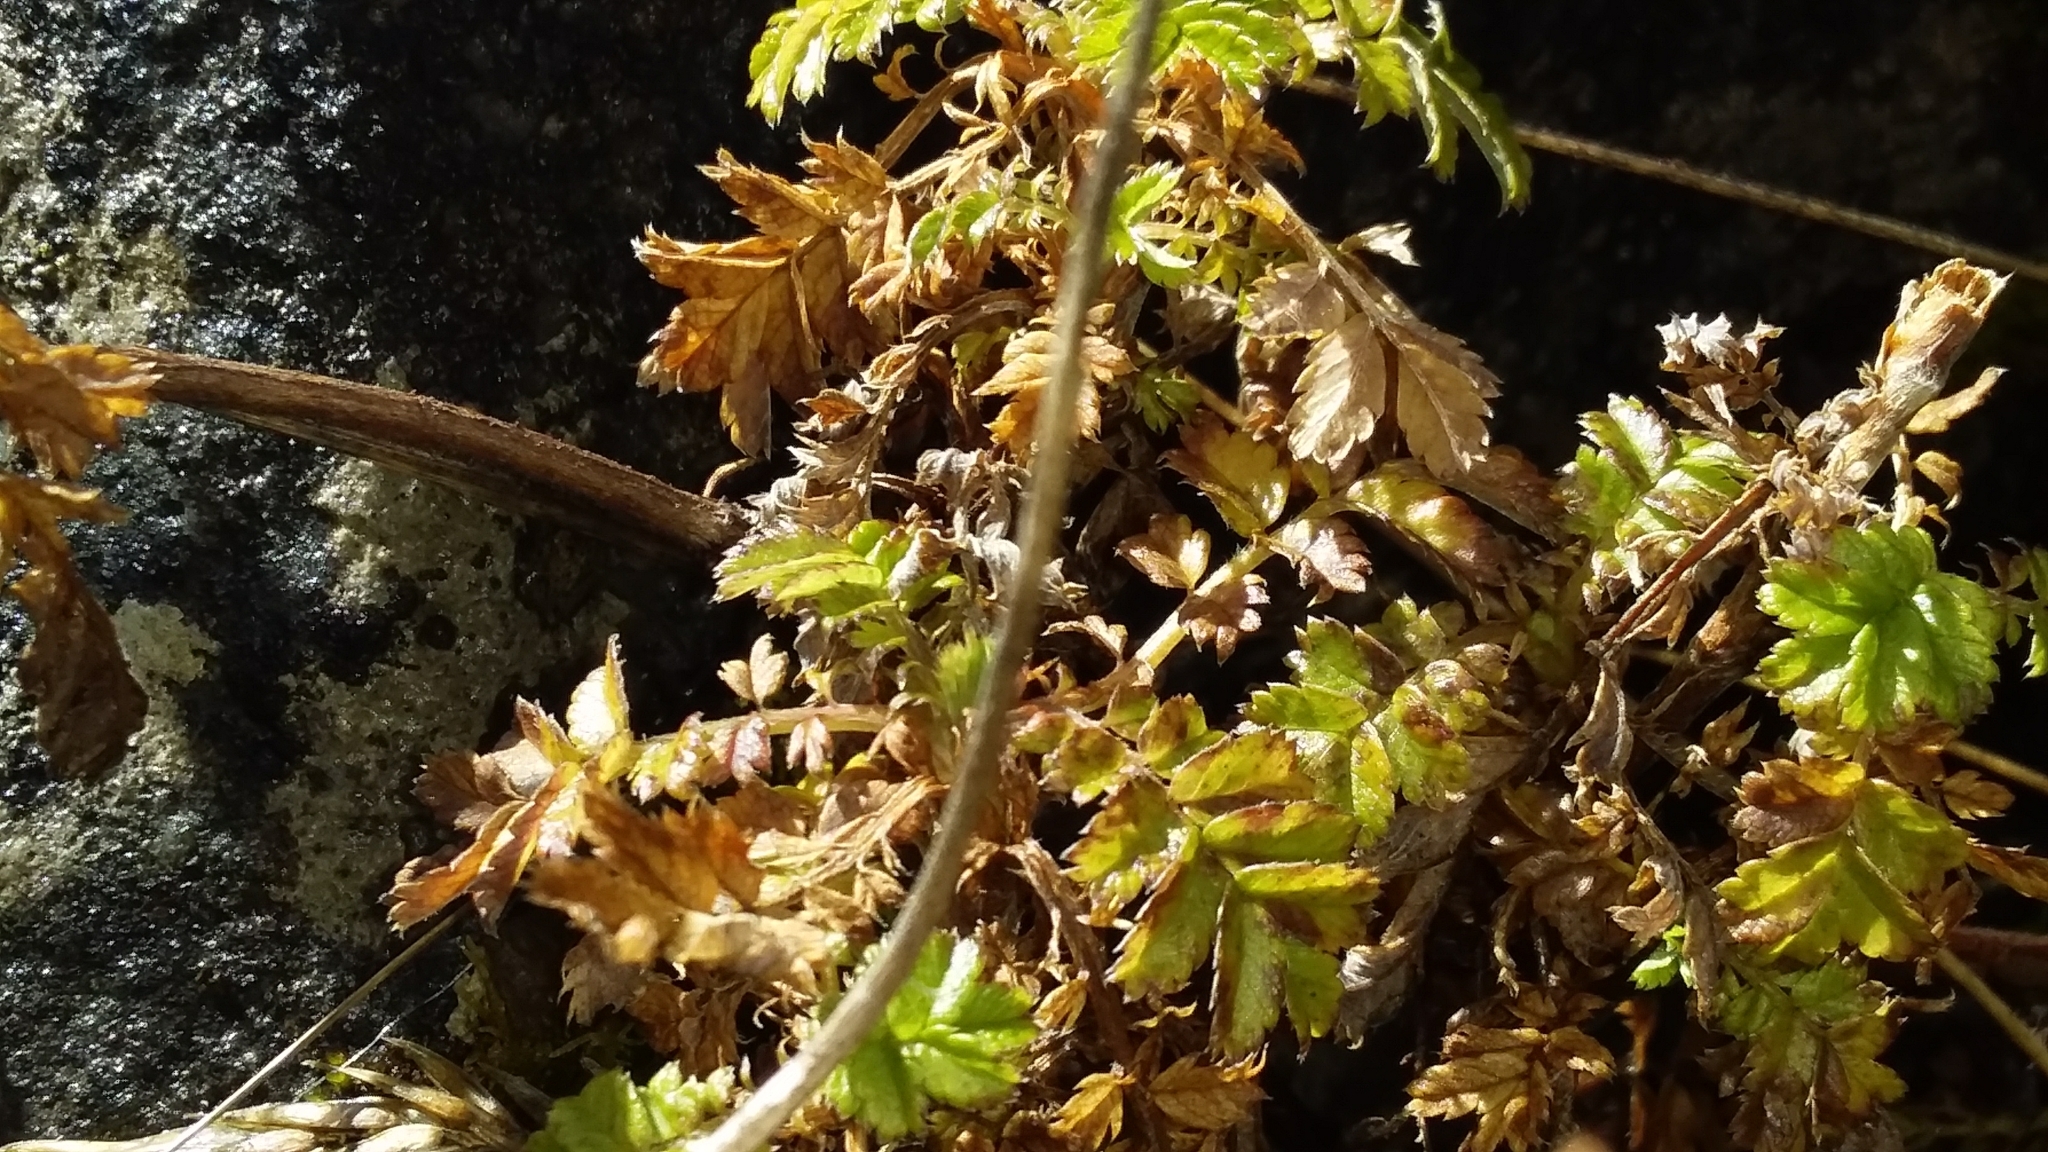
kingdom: Plantae
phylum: Tracheophyta
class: Magnoliopsida
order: Rosales
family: Rosaceae
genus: Acaena
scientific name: Acaena anserinifolia
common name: Bronze pirri-pirri-bur
